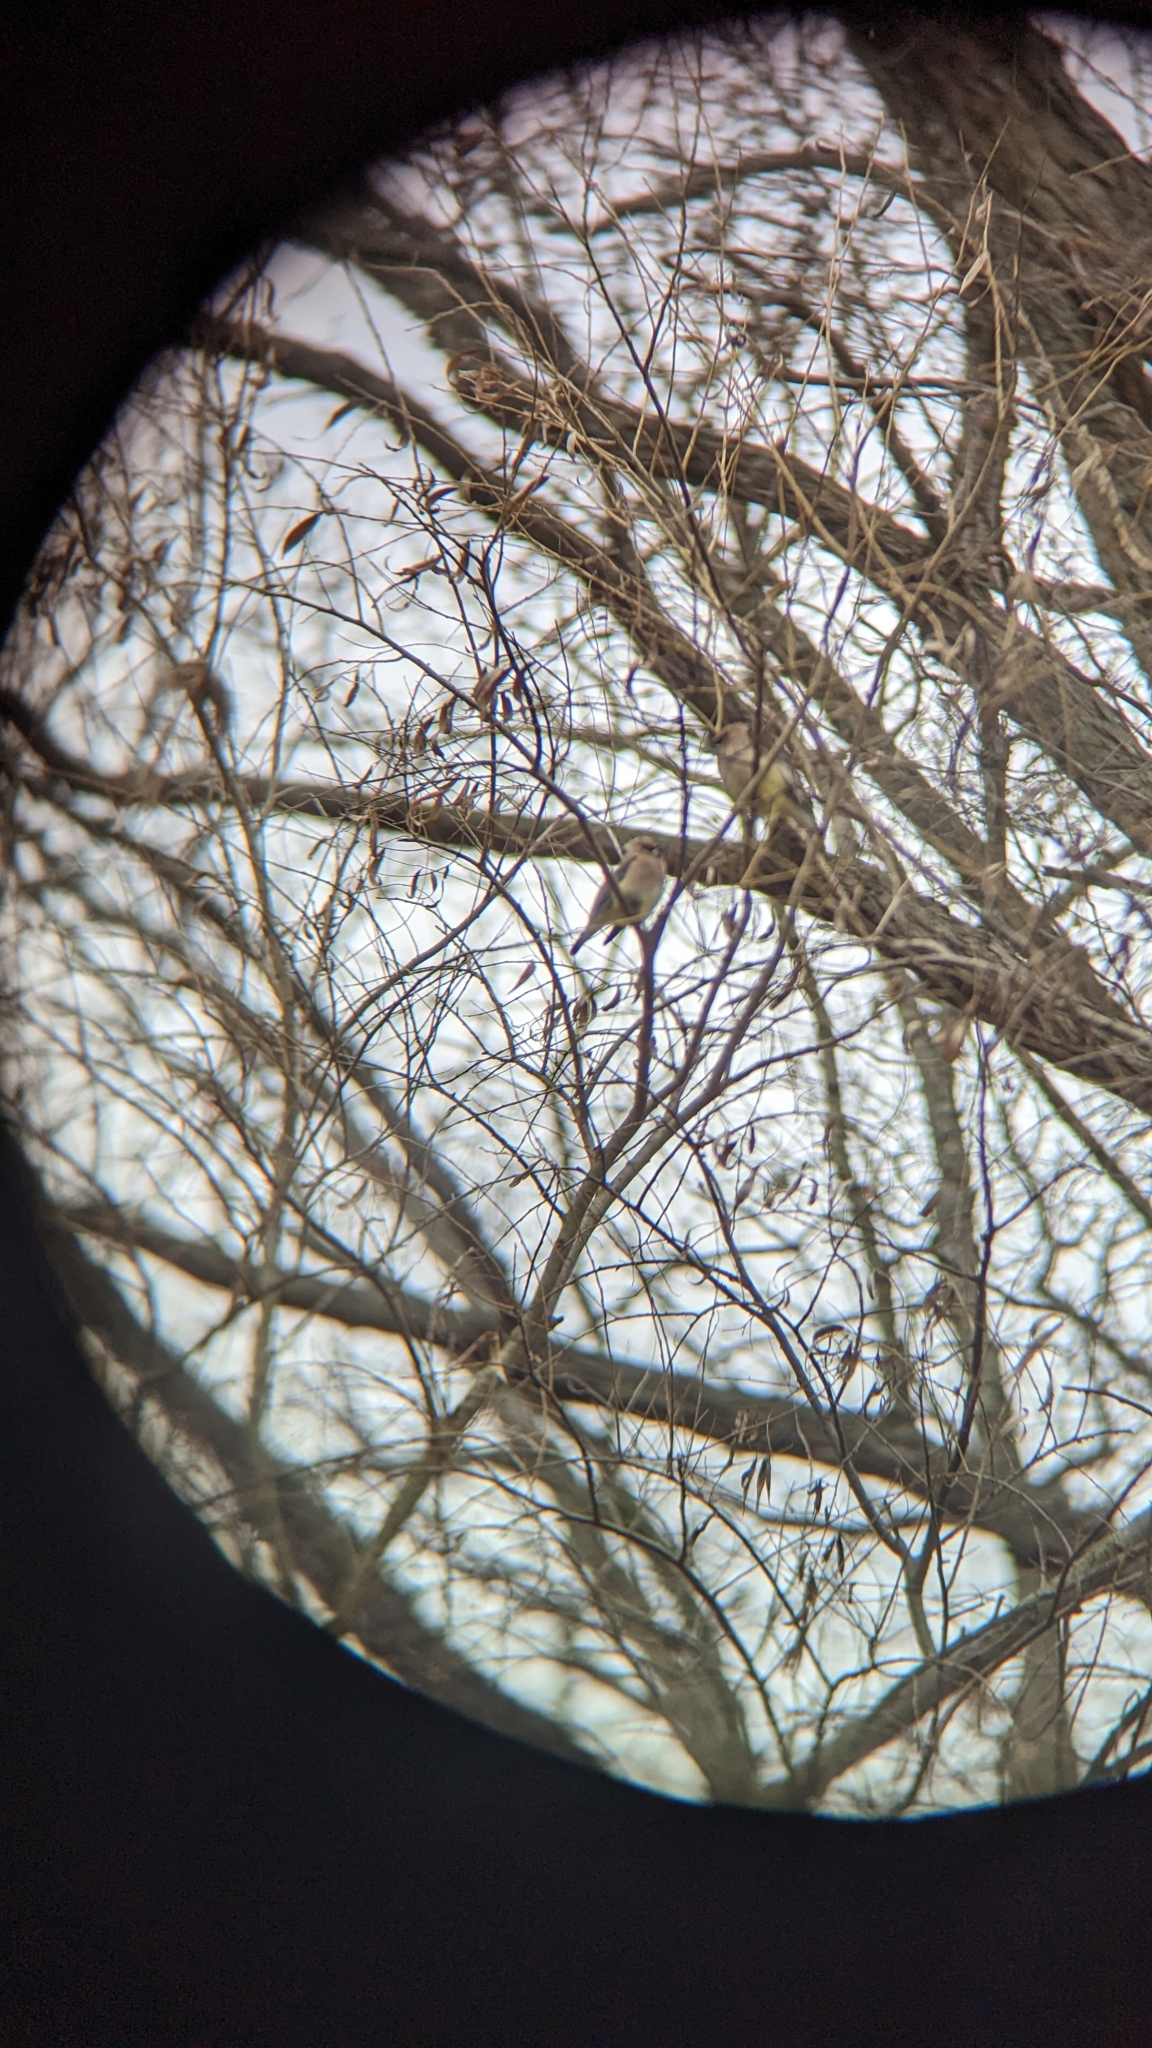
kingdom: Animalia
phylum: Chordata
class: Aves
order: Passeriformes
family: Bombycillidae
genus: Bombycilla
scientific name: Bombycilla cedrorum
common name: Cedar waxwing
